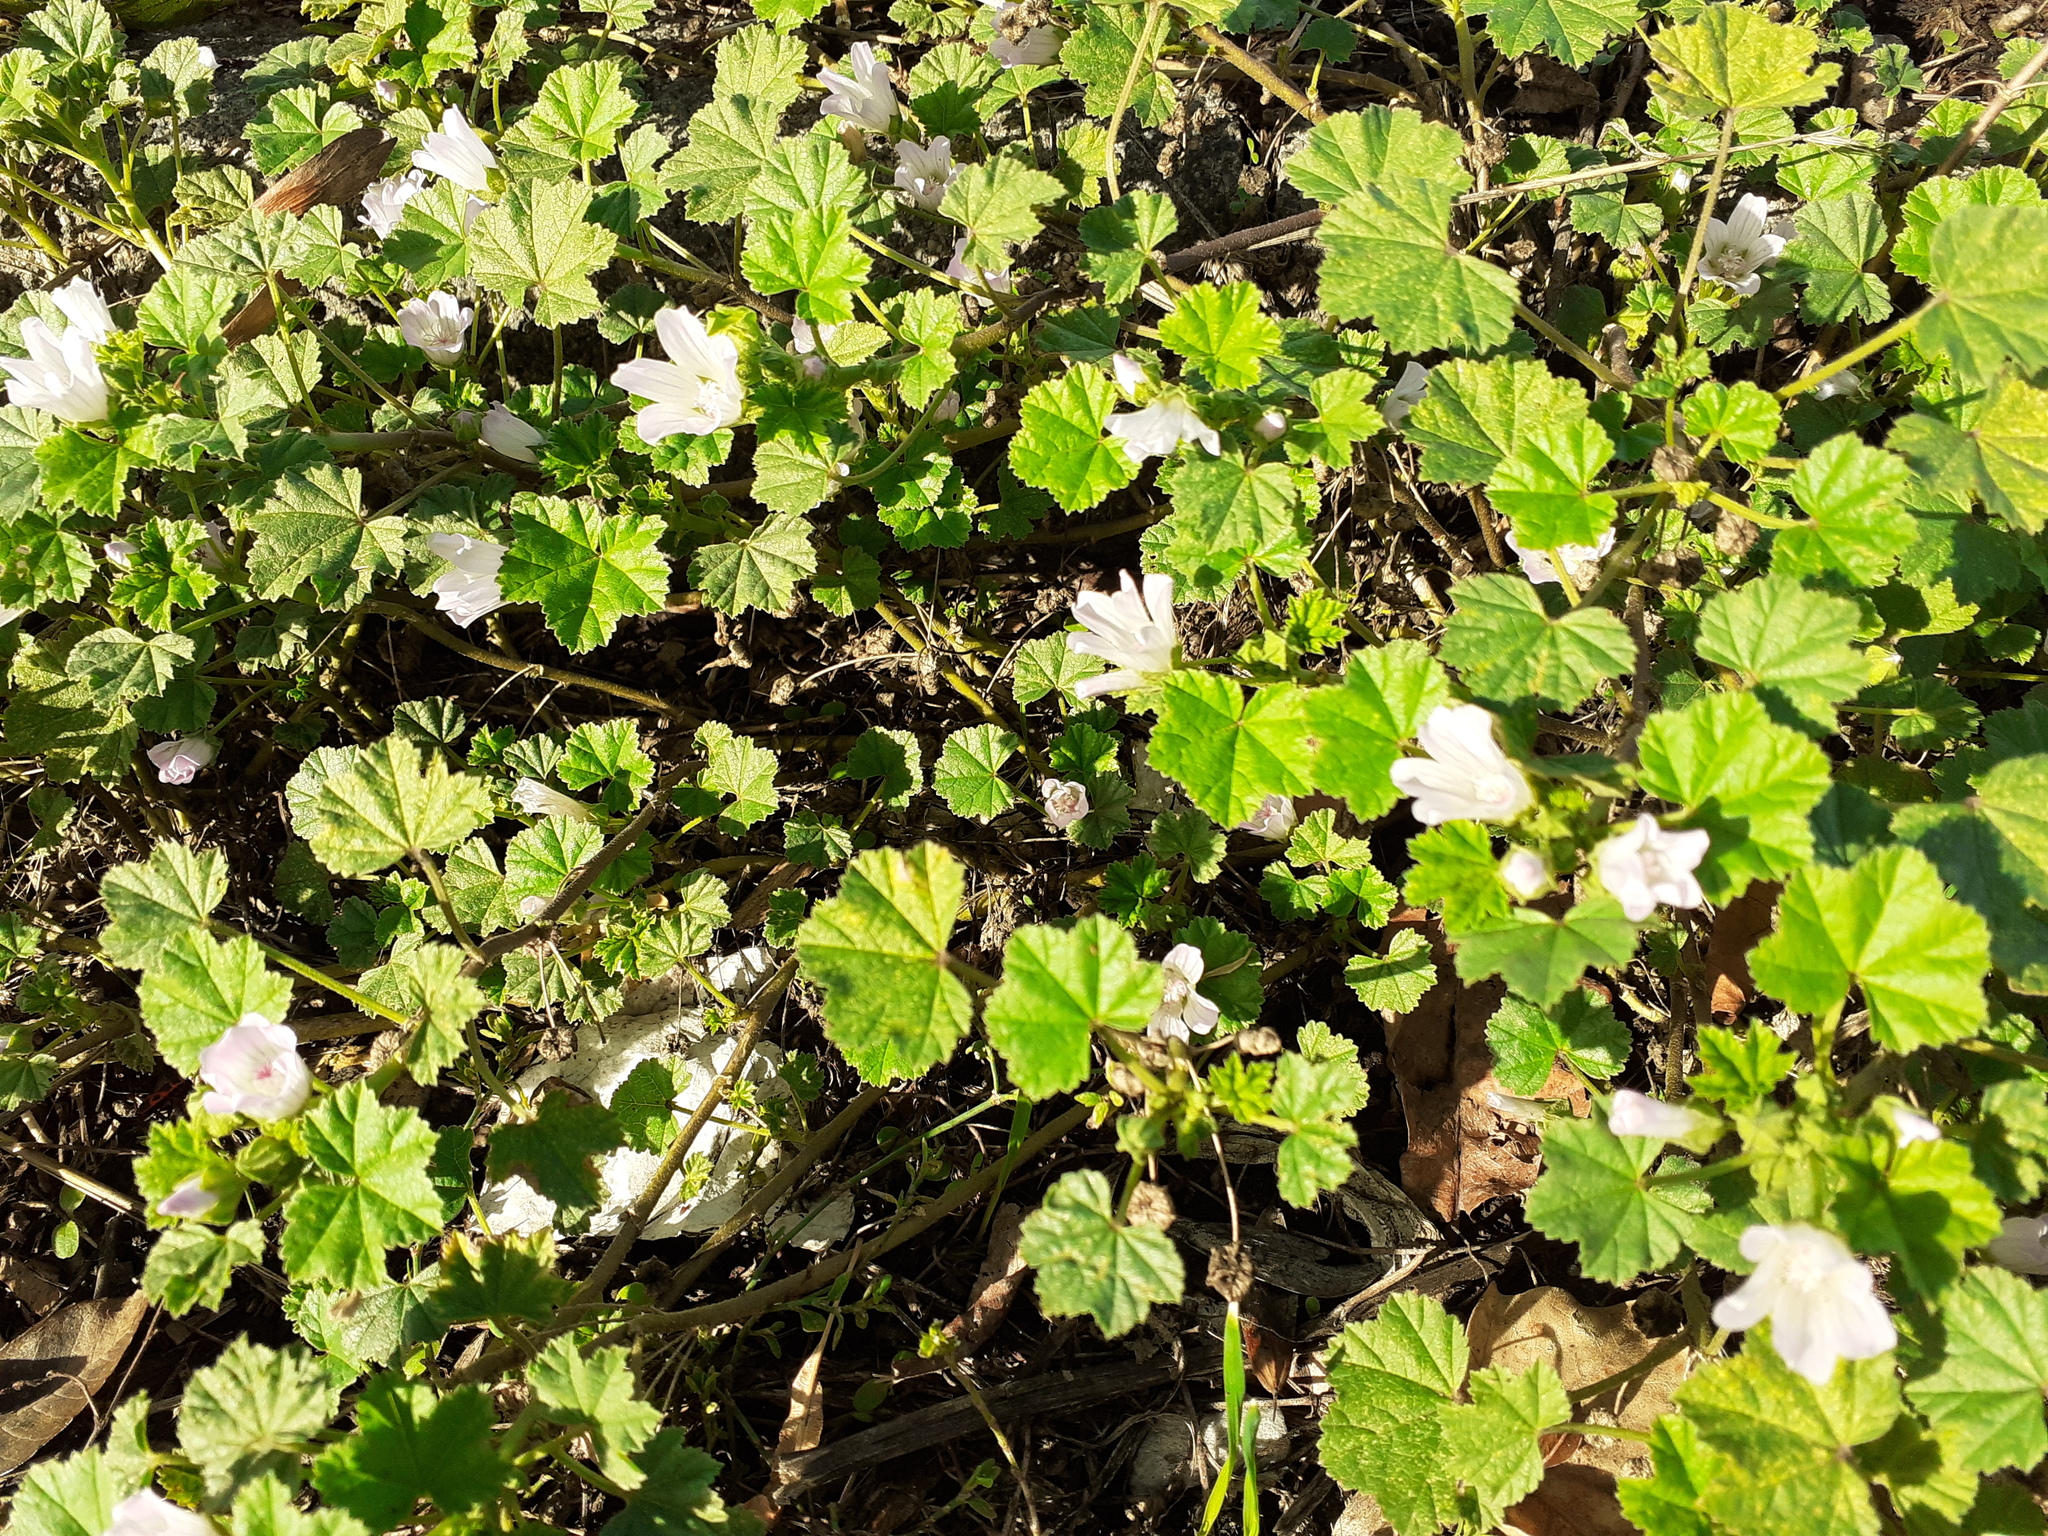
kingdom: Plantae
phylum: Tracheophyta
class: Magnoliopsida
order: Malvales
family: Malvaceae
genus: Malva
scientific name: Malva neglecta
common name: Common mallow
